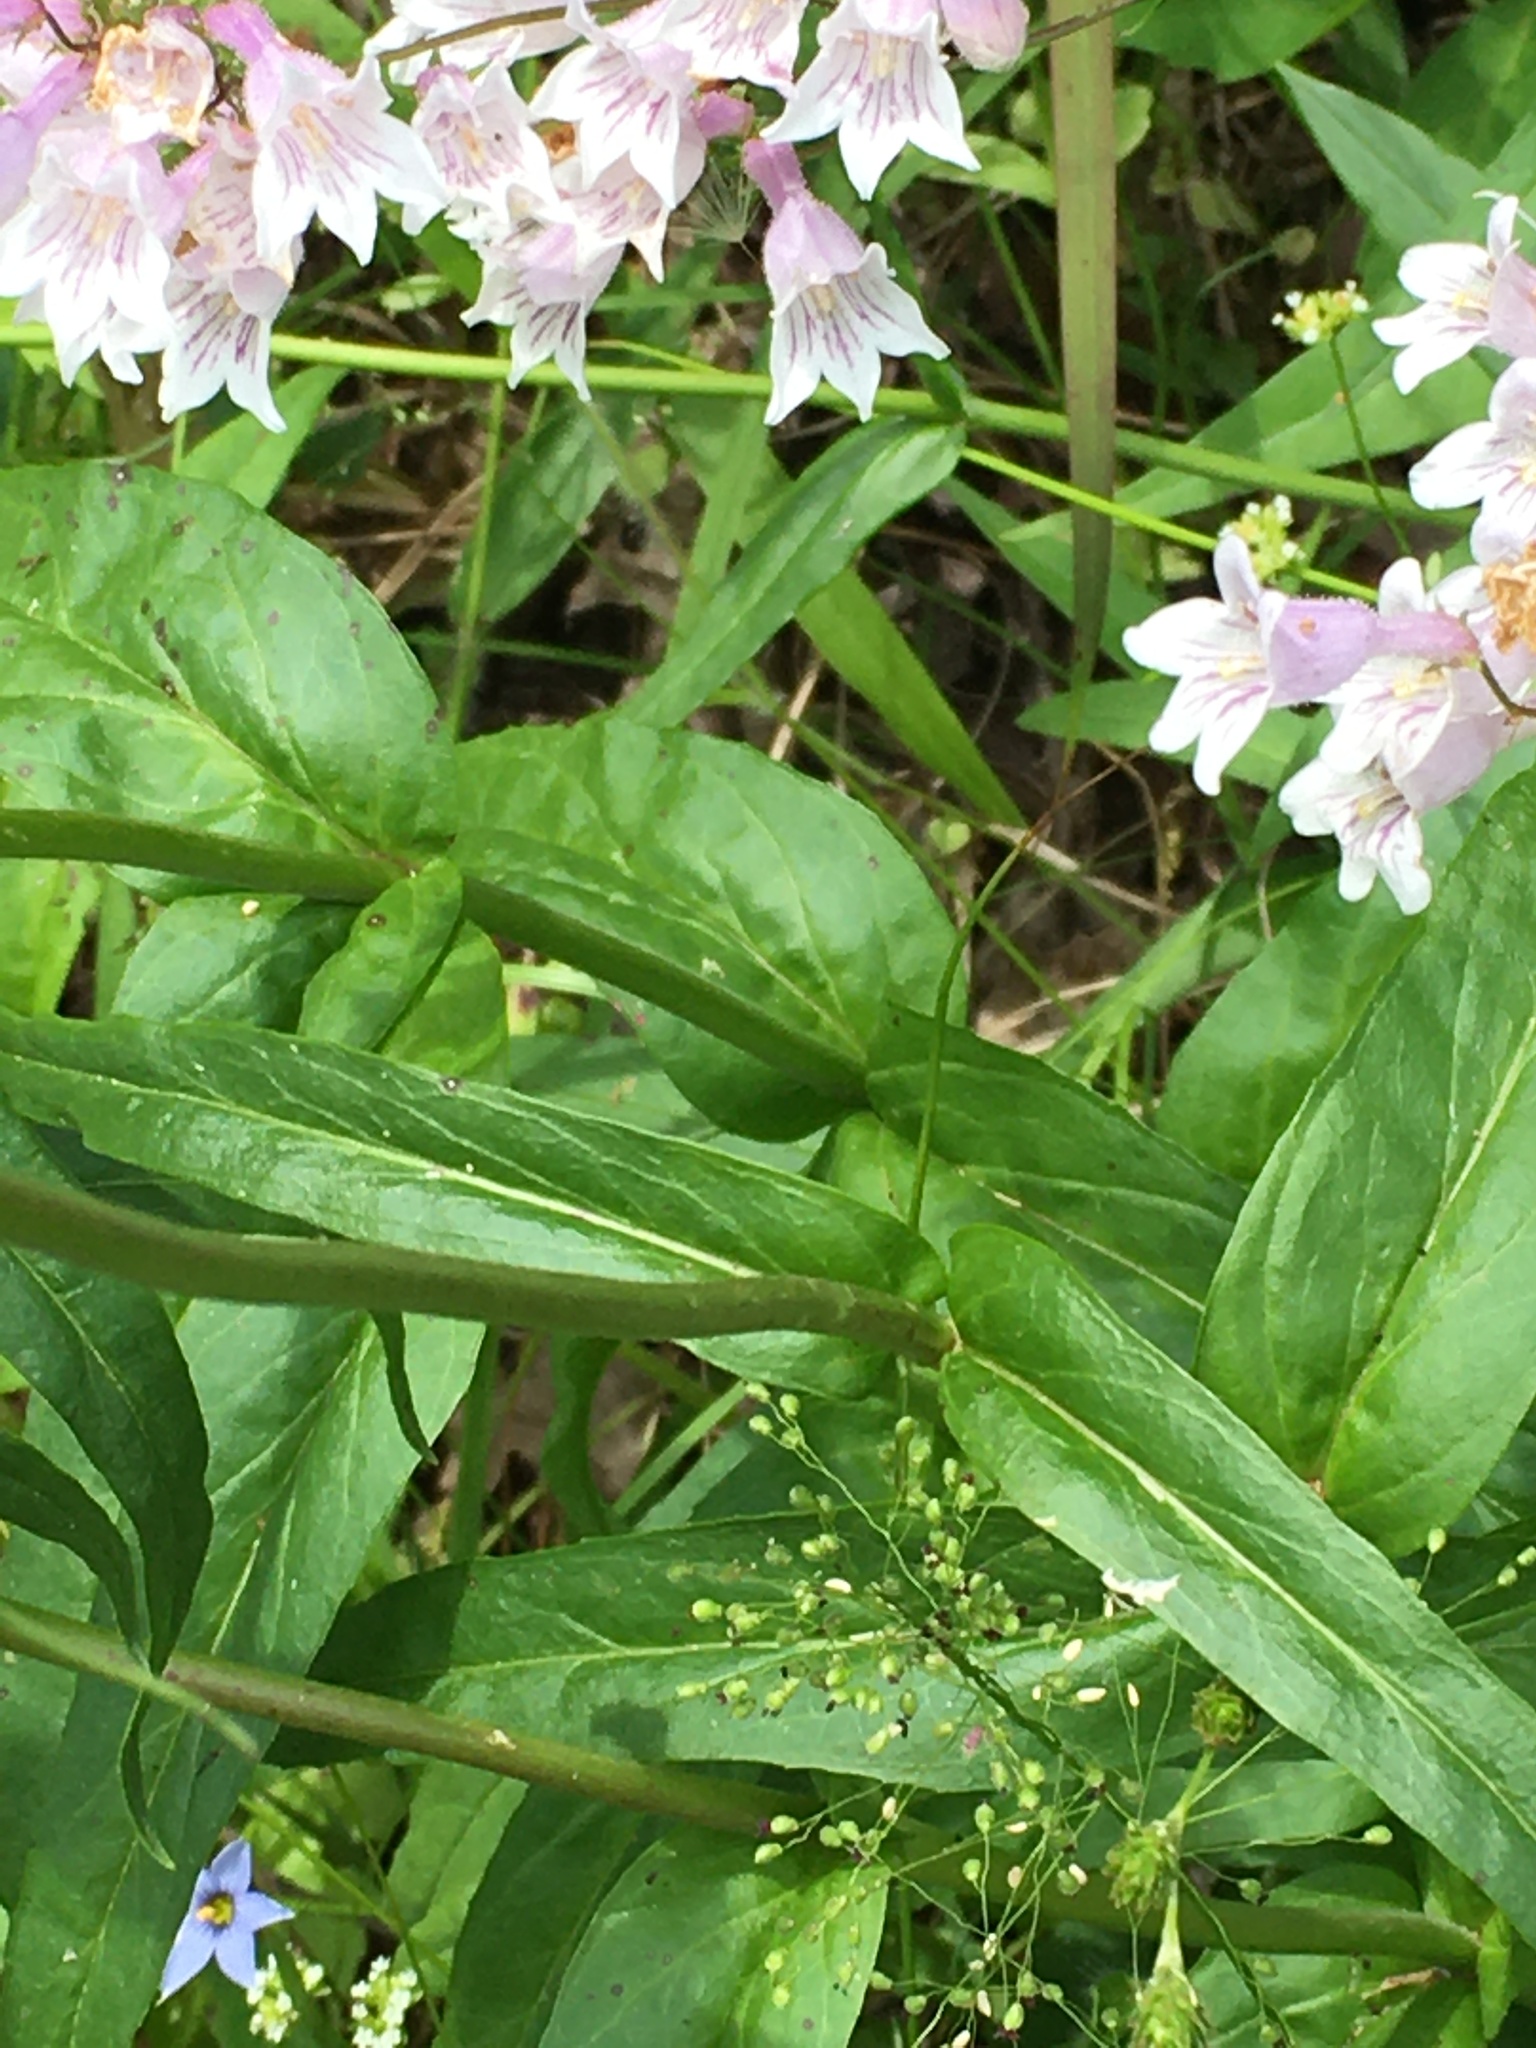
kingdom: Plantae
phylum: Tracheophyta
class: Magnoliopsida
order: Lamiales
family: Plantaginaceae
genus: Penstemon
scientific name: Penstemon laevigatus
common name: Eastern beardtongue
